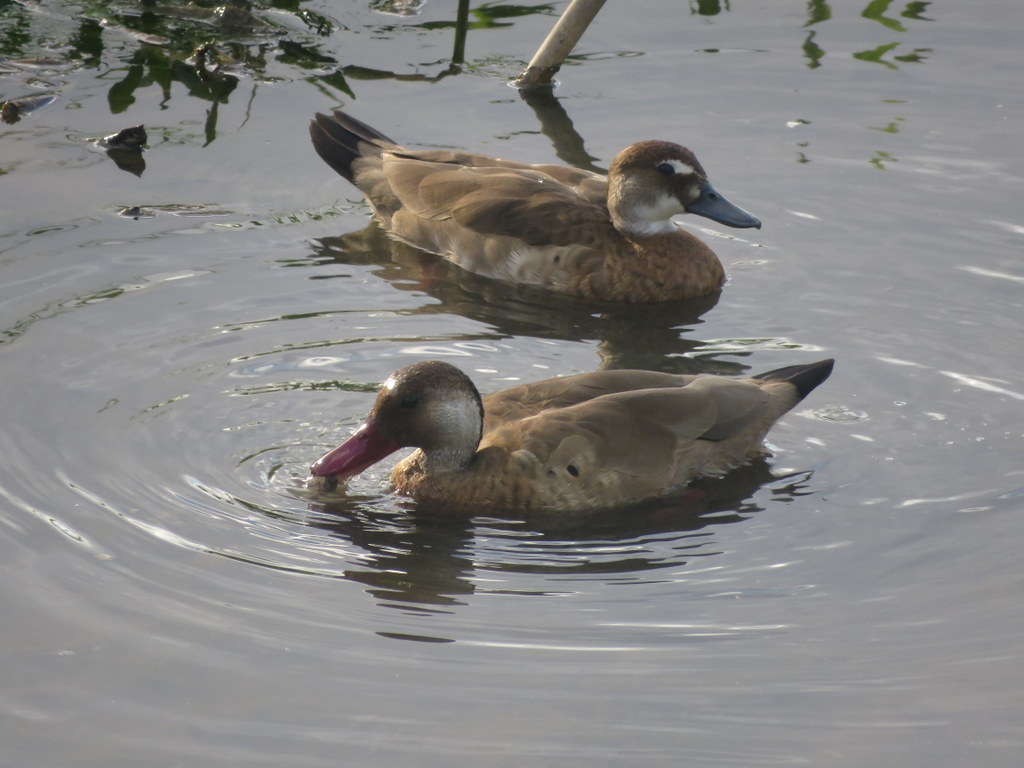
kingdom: Animalia
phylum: Chordata
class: Aves
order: Anseriformes
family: Anatidae
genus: Amazonetta
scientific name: Amazonetta brasiliensis
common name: Brazilian teal
